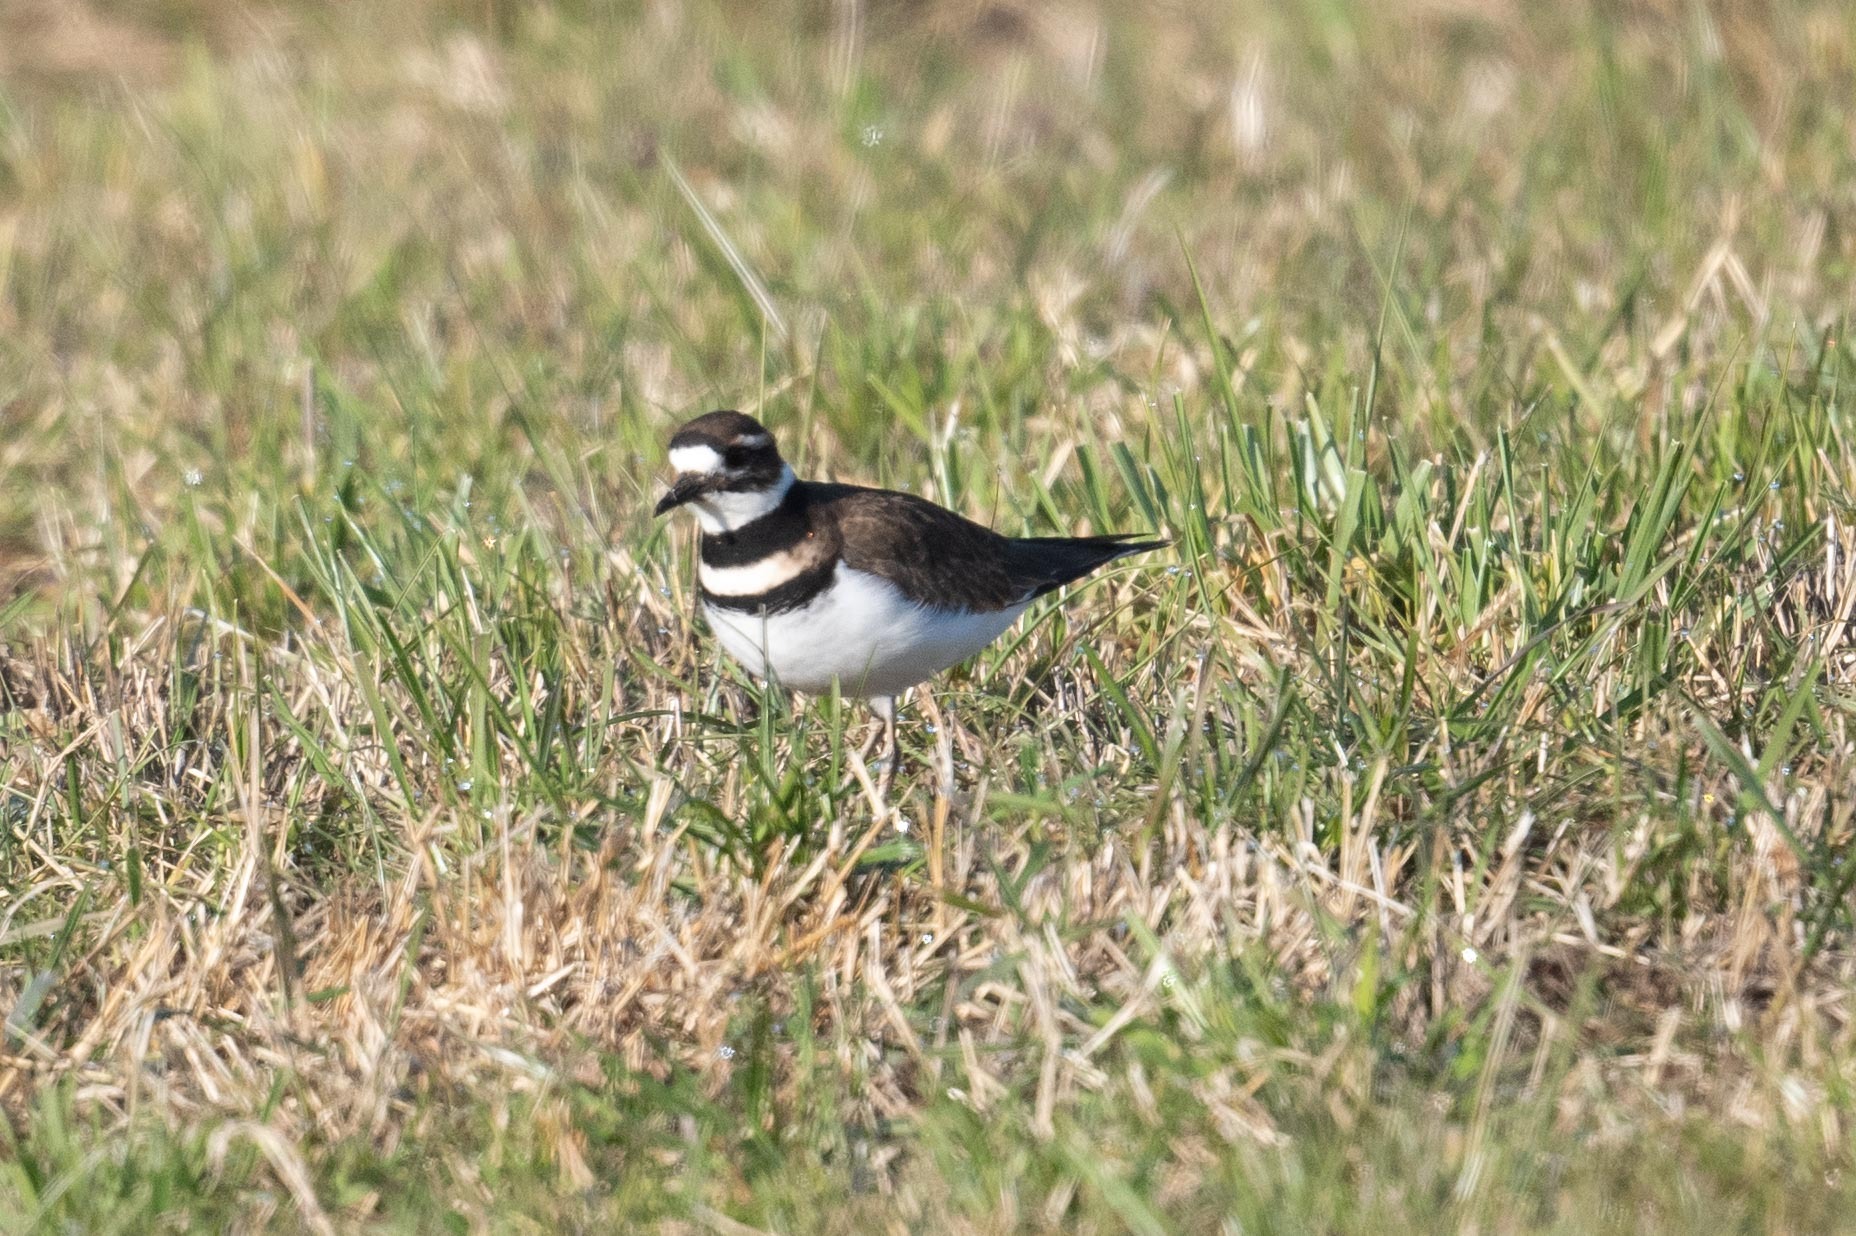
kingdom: Animalia
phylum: Chordata
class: Aves
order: Charadriiformes
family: Charadriidae
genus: Charadrius
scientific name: Charadrius vociferus
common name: Killdeer
